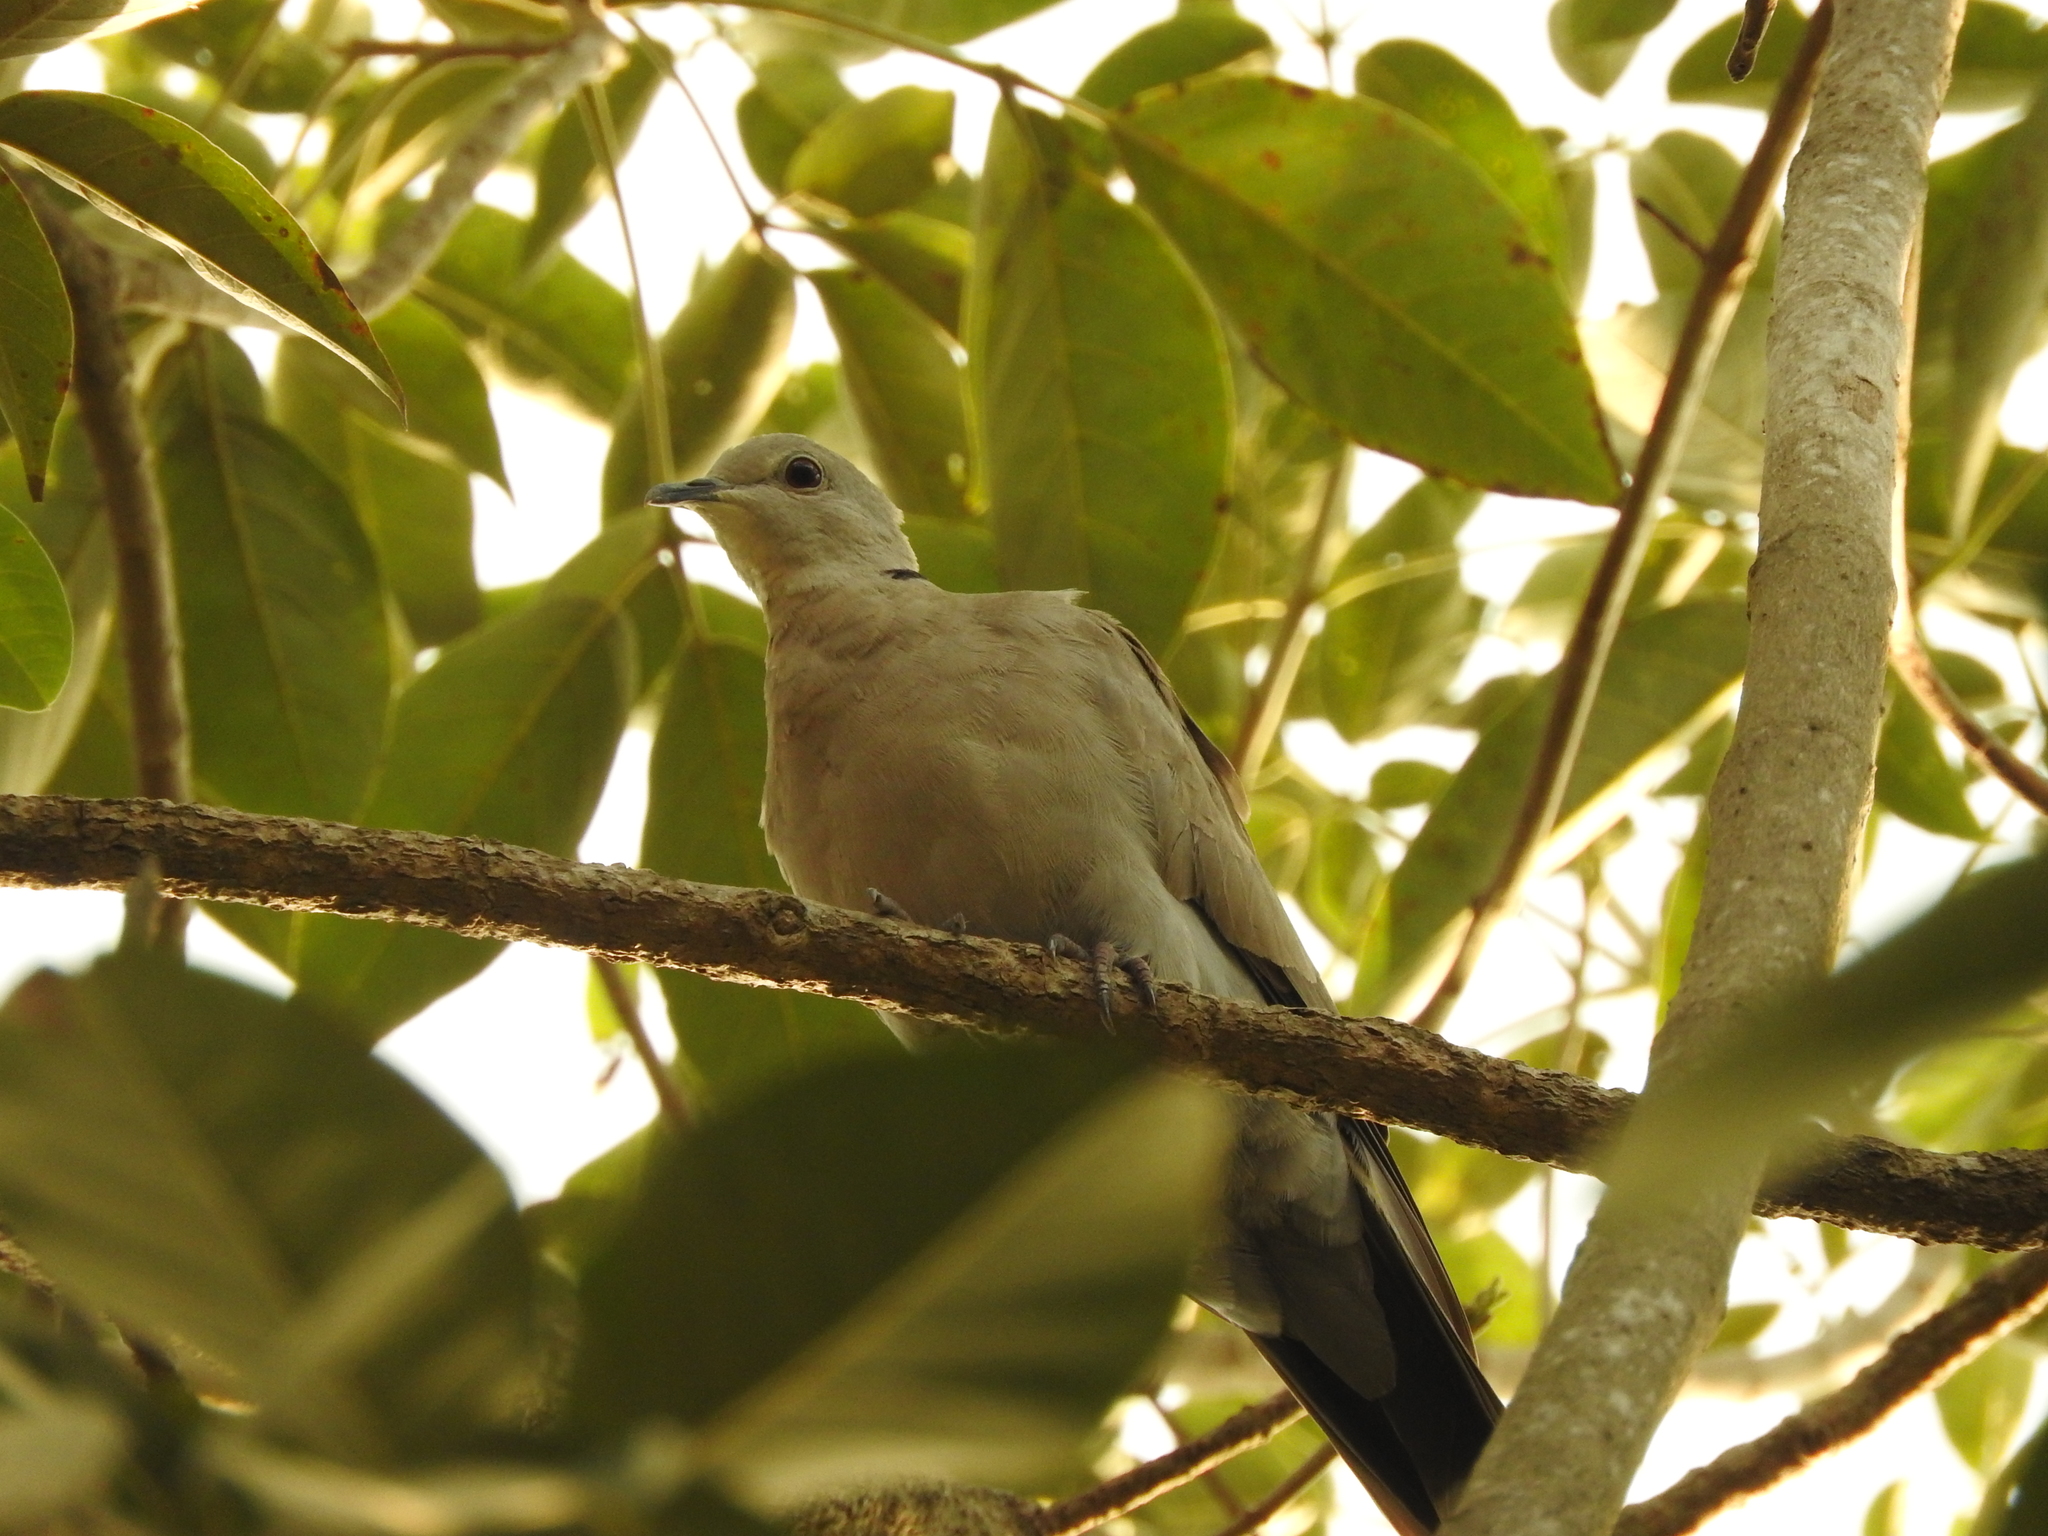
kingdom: Animalia
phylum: Chordata
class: Aves
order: Columbiformes
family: Columbidae
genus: Streptopelia
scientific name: Streptopelia decaocto
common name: Eurasian collared dove
